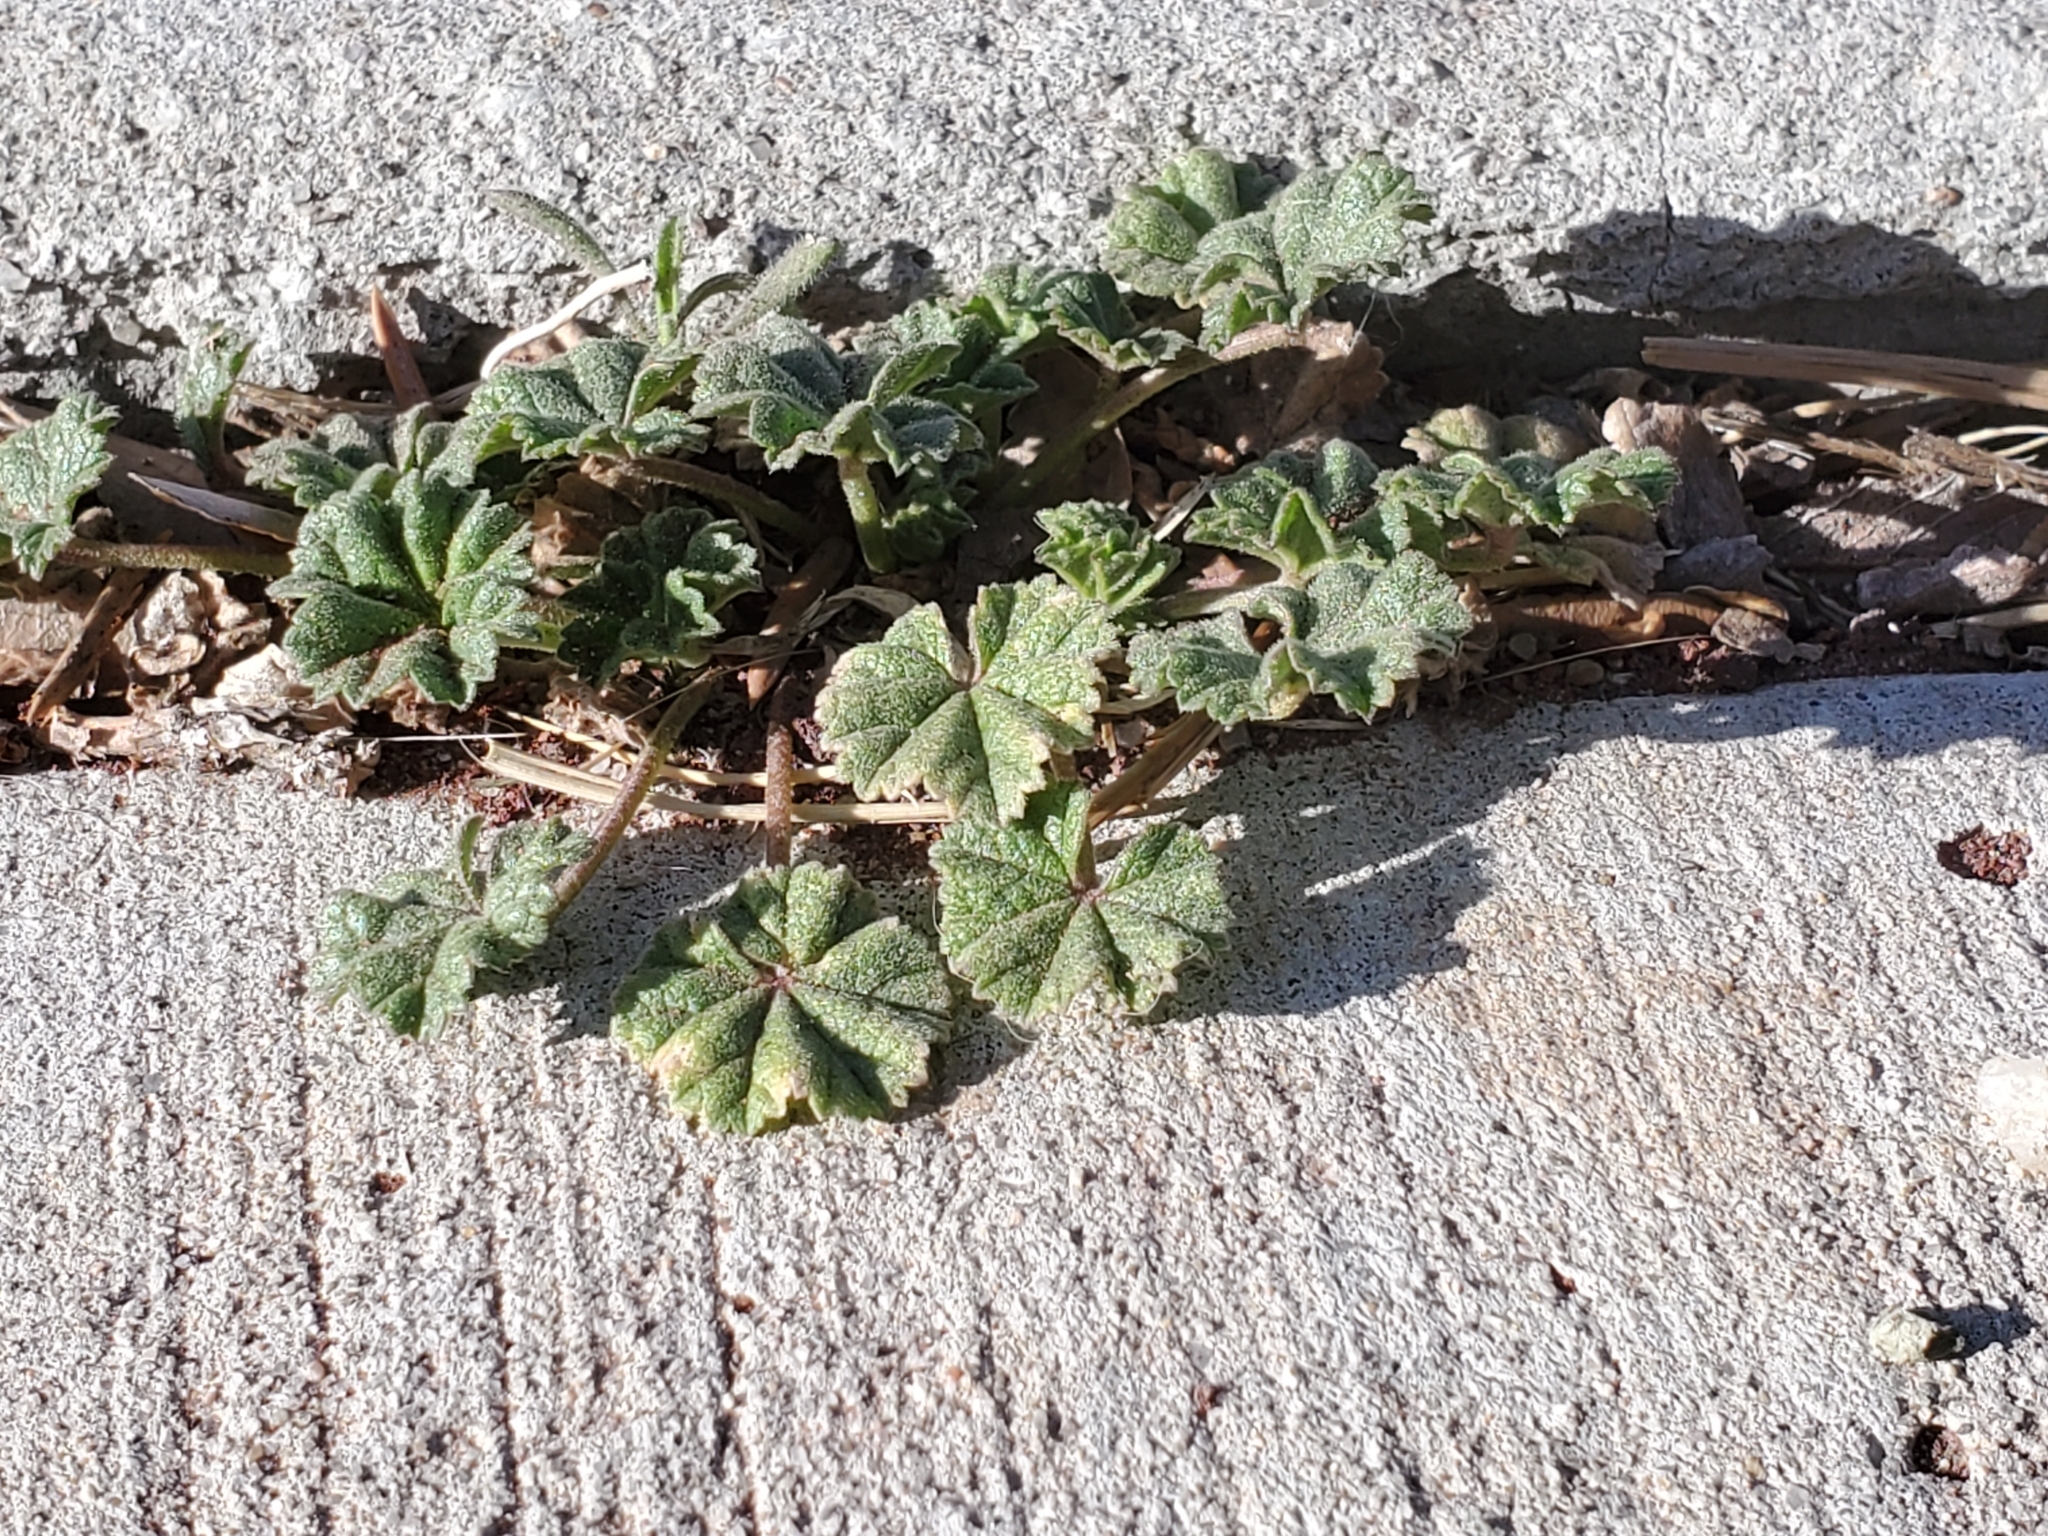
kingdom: Plantae
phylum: Tracheophyta
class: Magnoliopsida
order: Malvales
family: Malvaceae
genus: Malva
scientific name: Malva neglecta
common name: Common mallow
